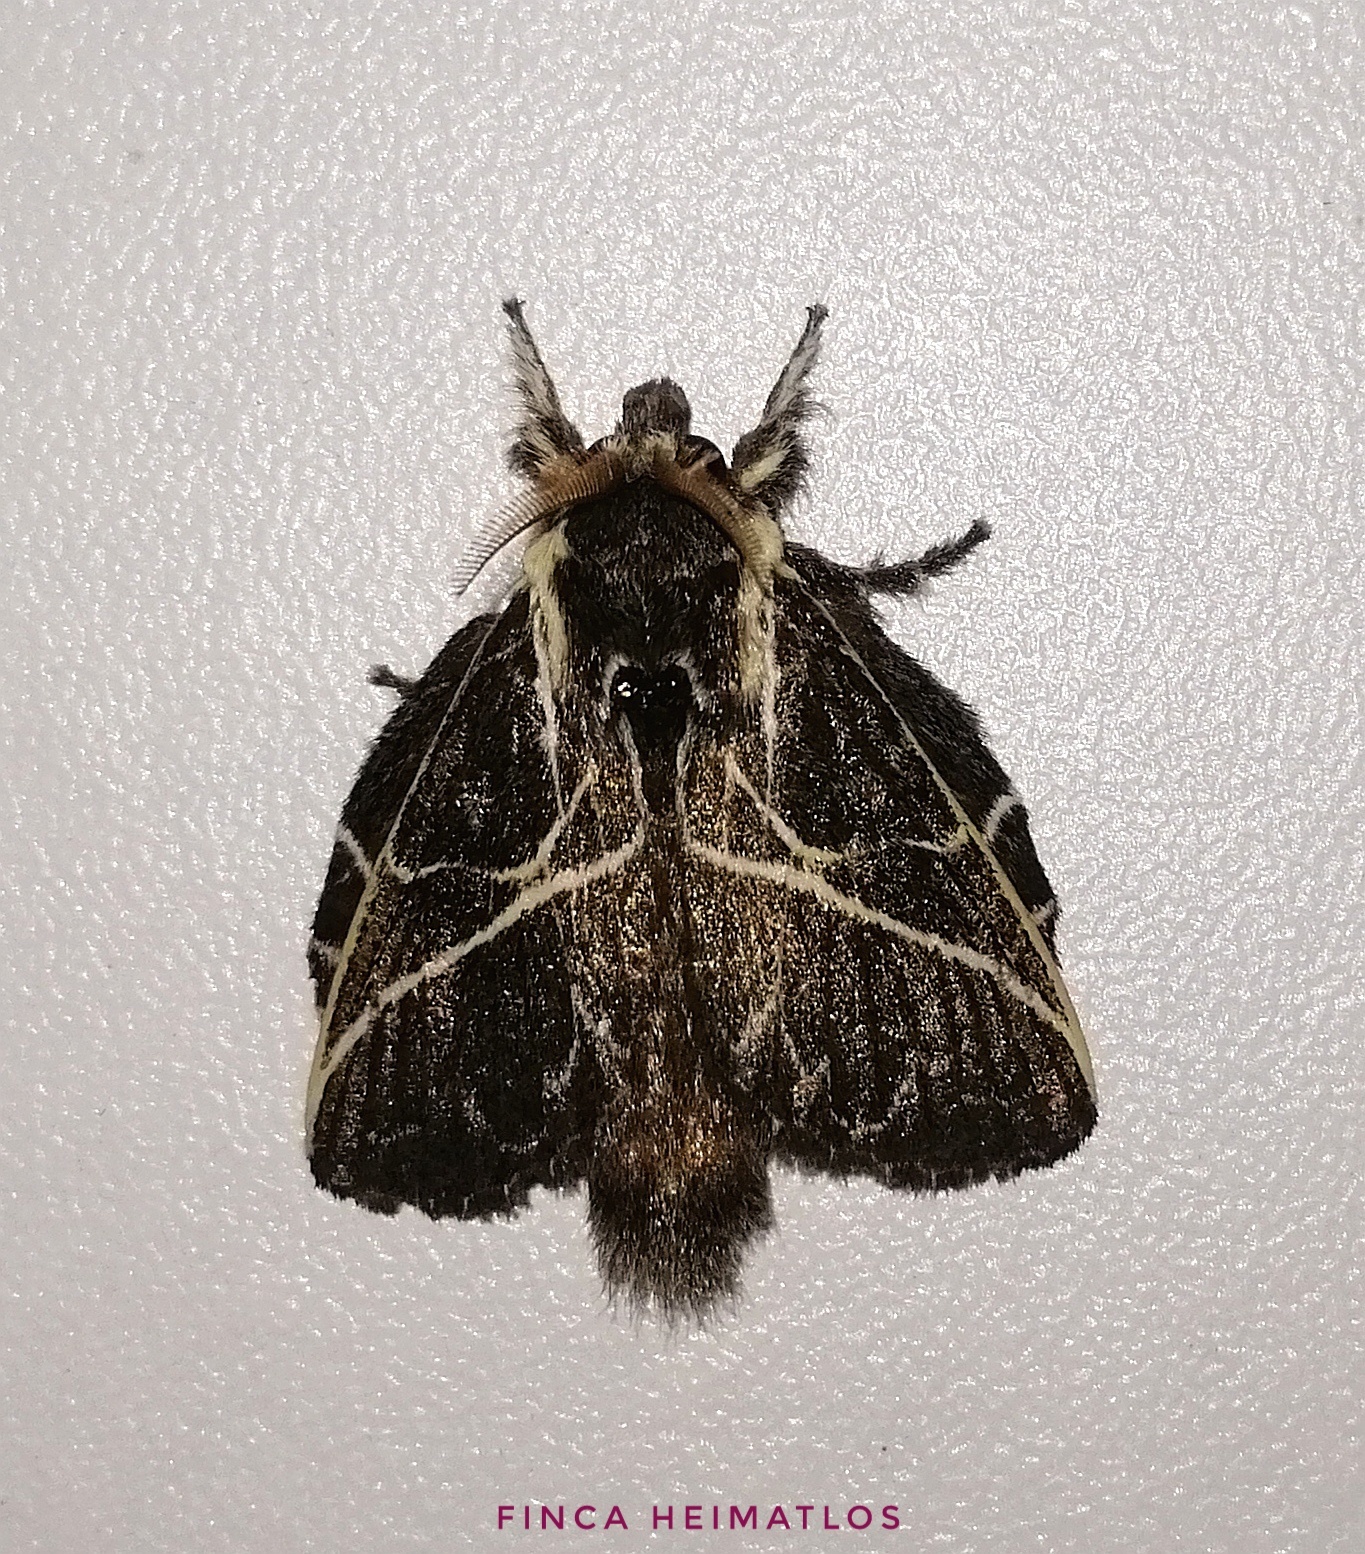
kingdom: Animalia
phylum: Arthropoda
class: Insecta
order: Lepidoptera
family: Lasiocampidae
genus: Euglyphis
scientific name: Euglyphis laudia
